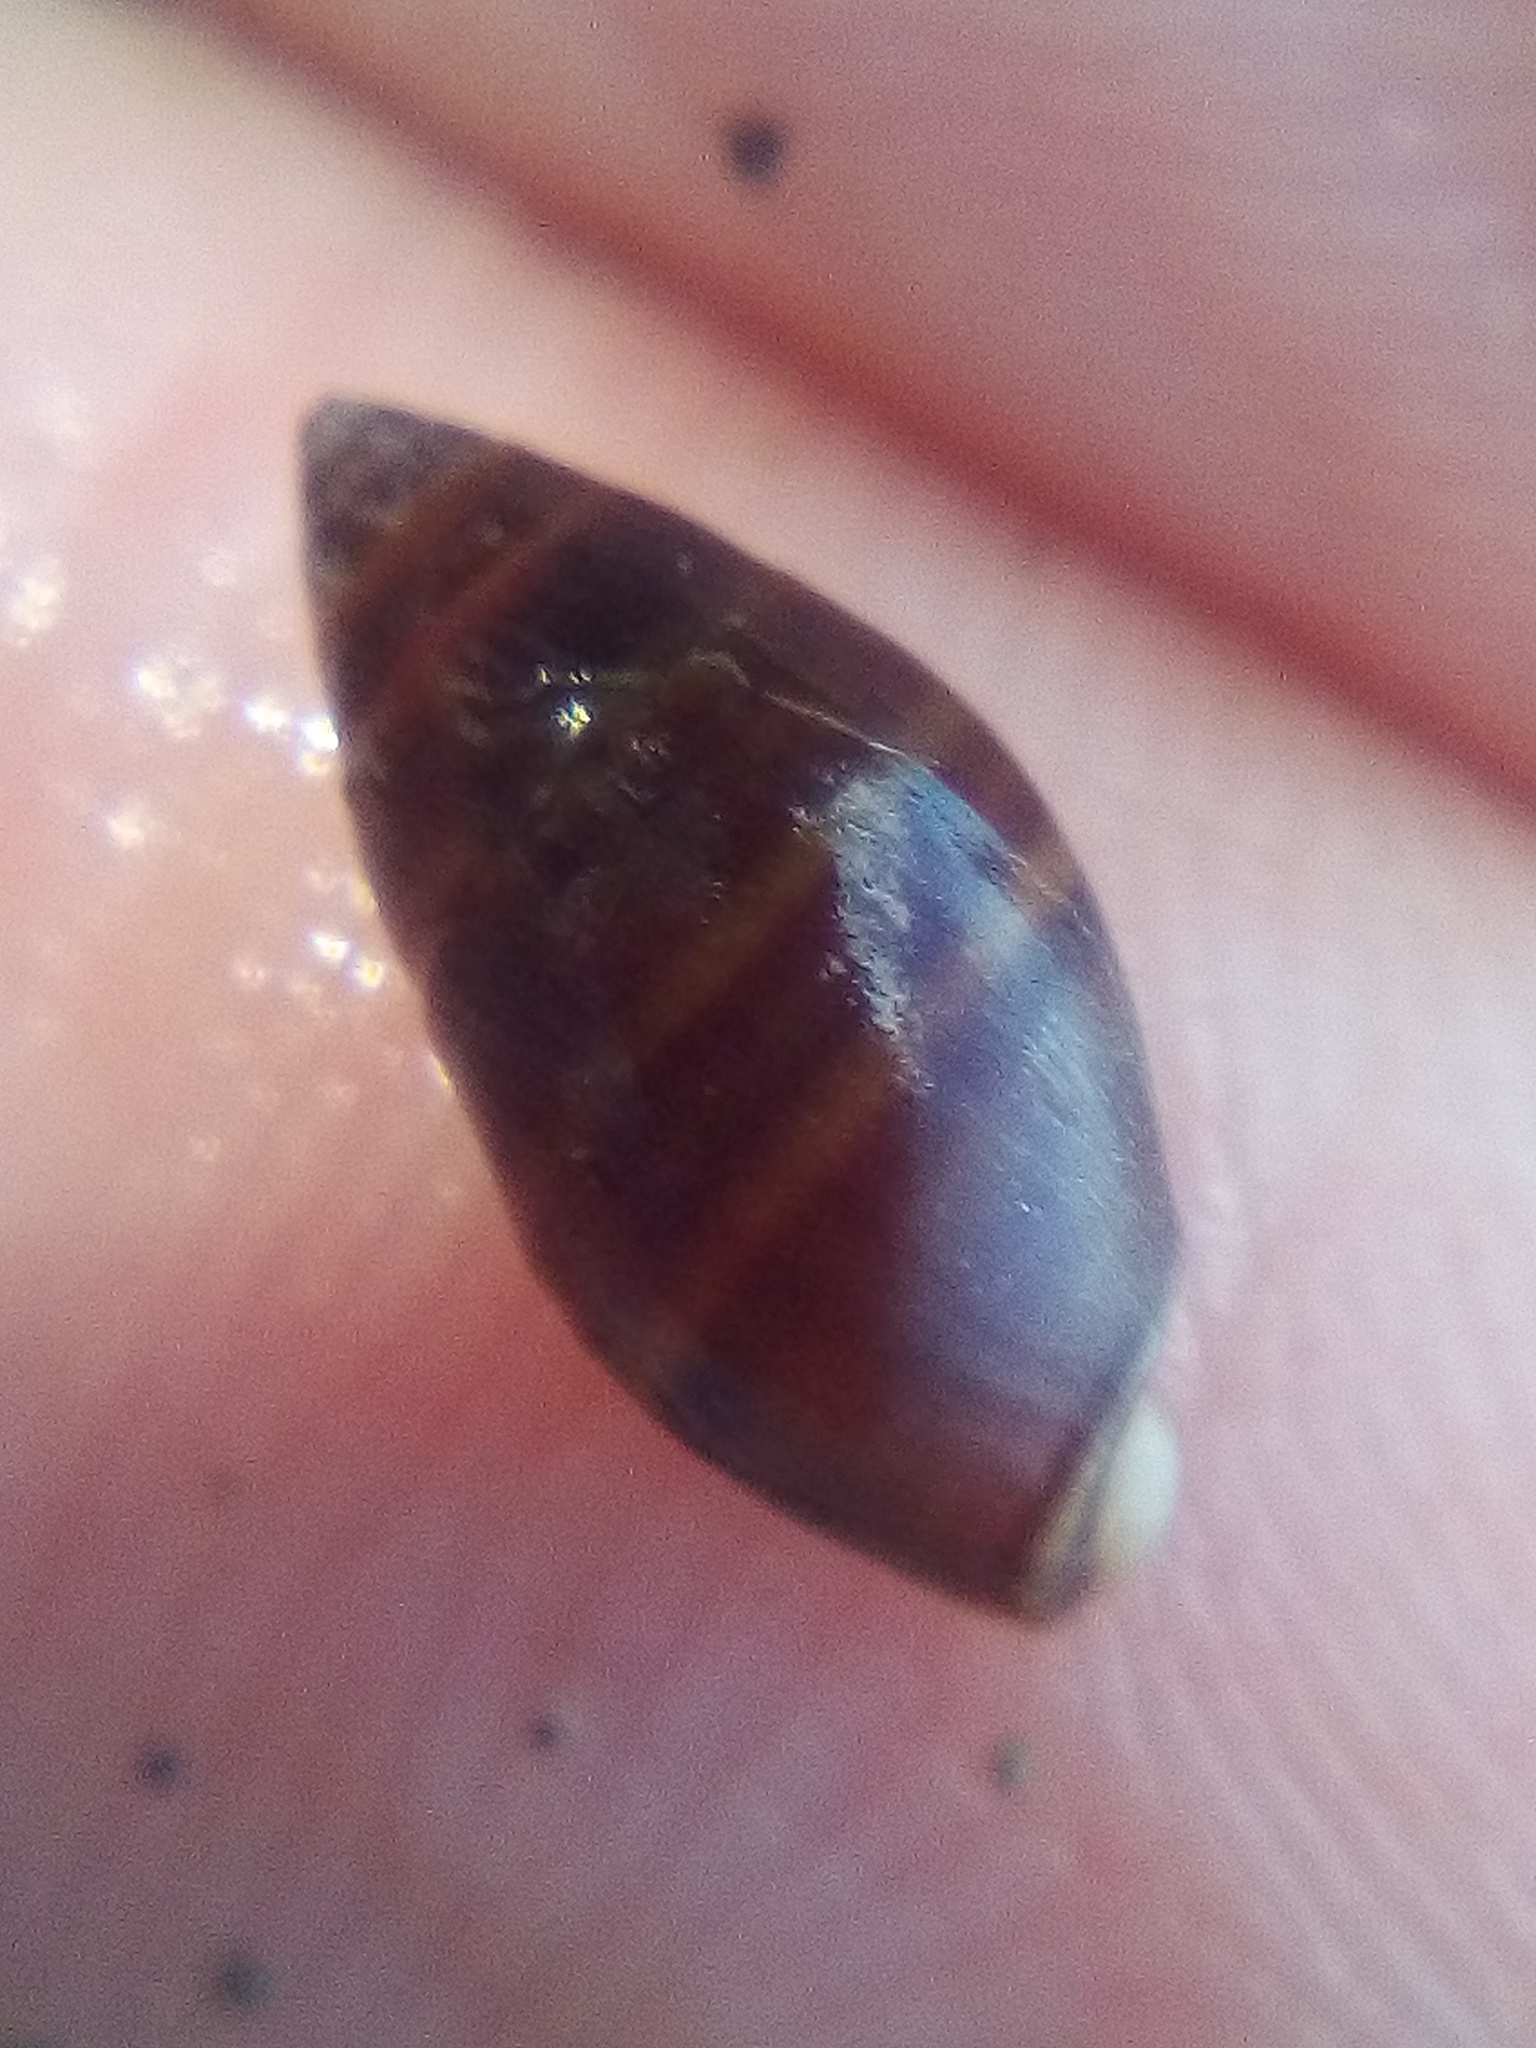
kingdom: Animalia
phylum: Mollusca
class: Gastropoda
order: Ellobiida
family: Ellobiidae
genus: Pleuroloba
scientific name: Pleuroloba costellaris
